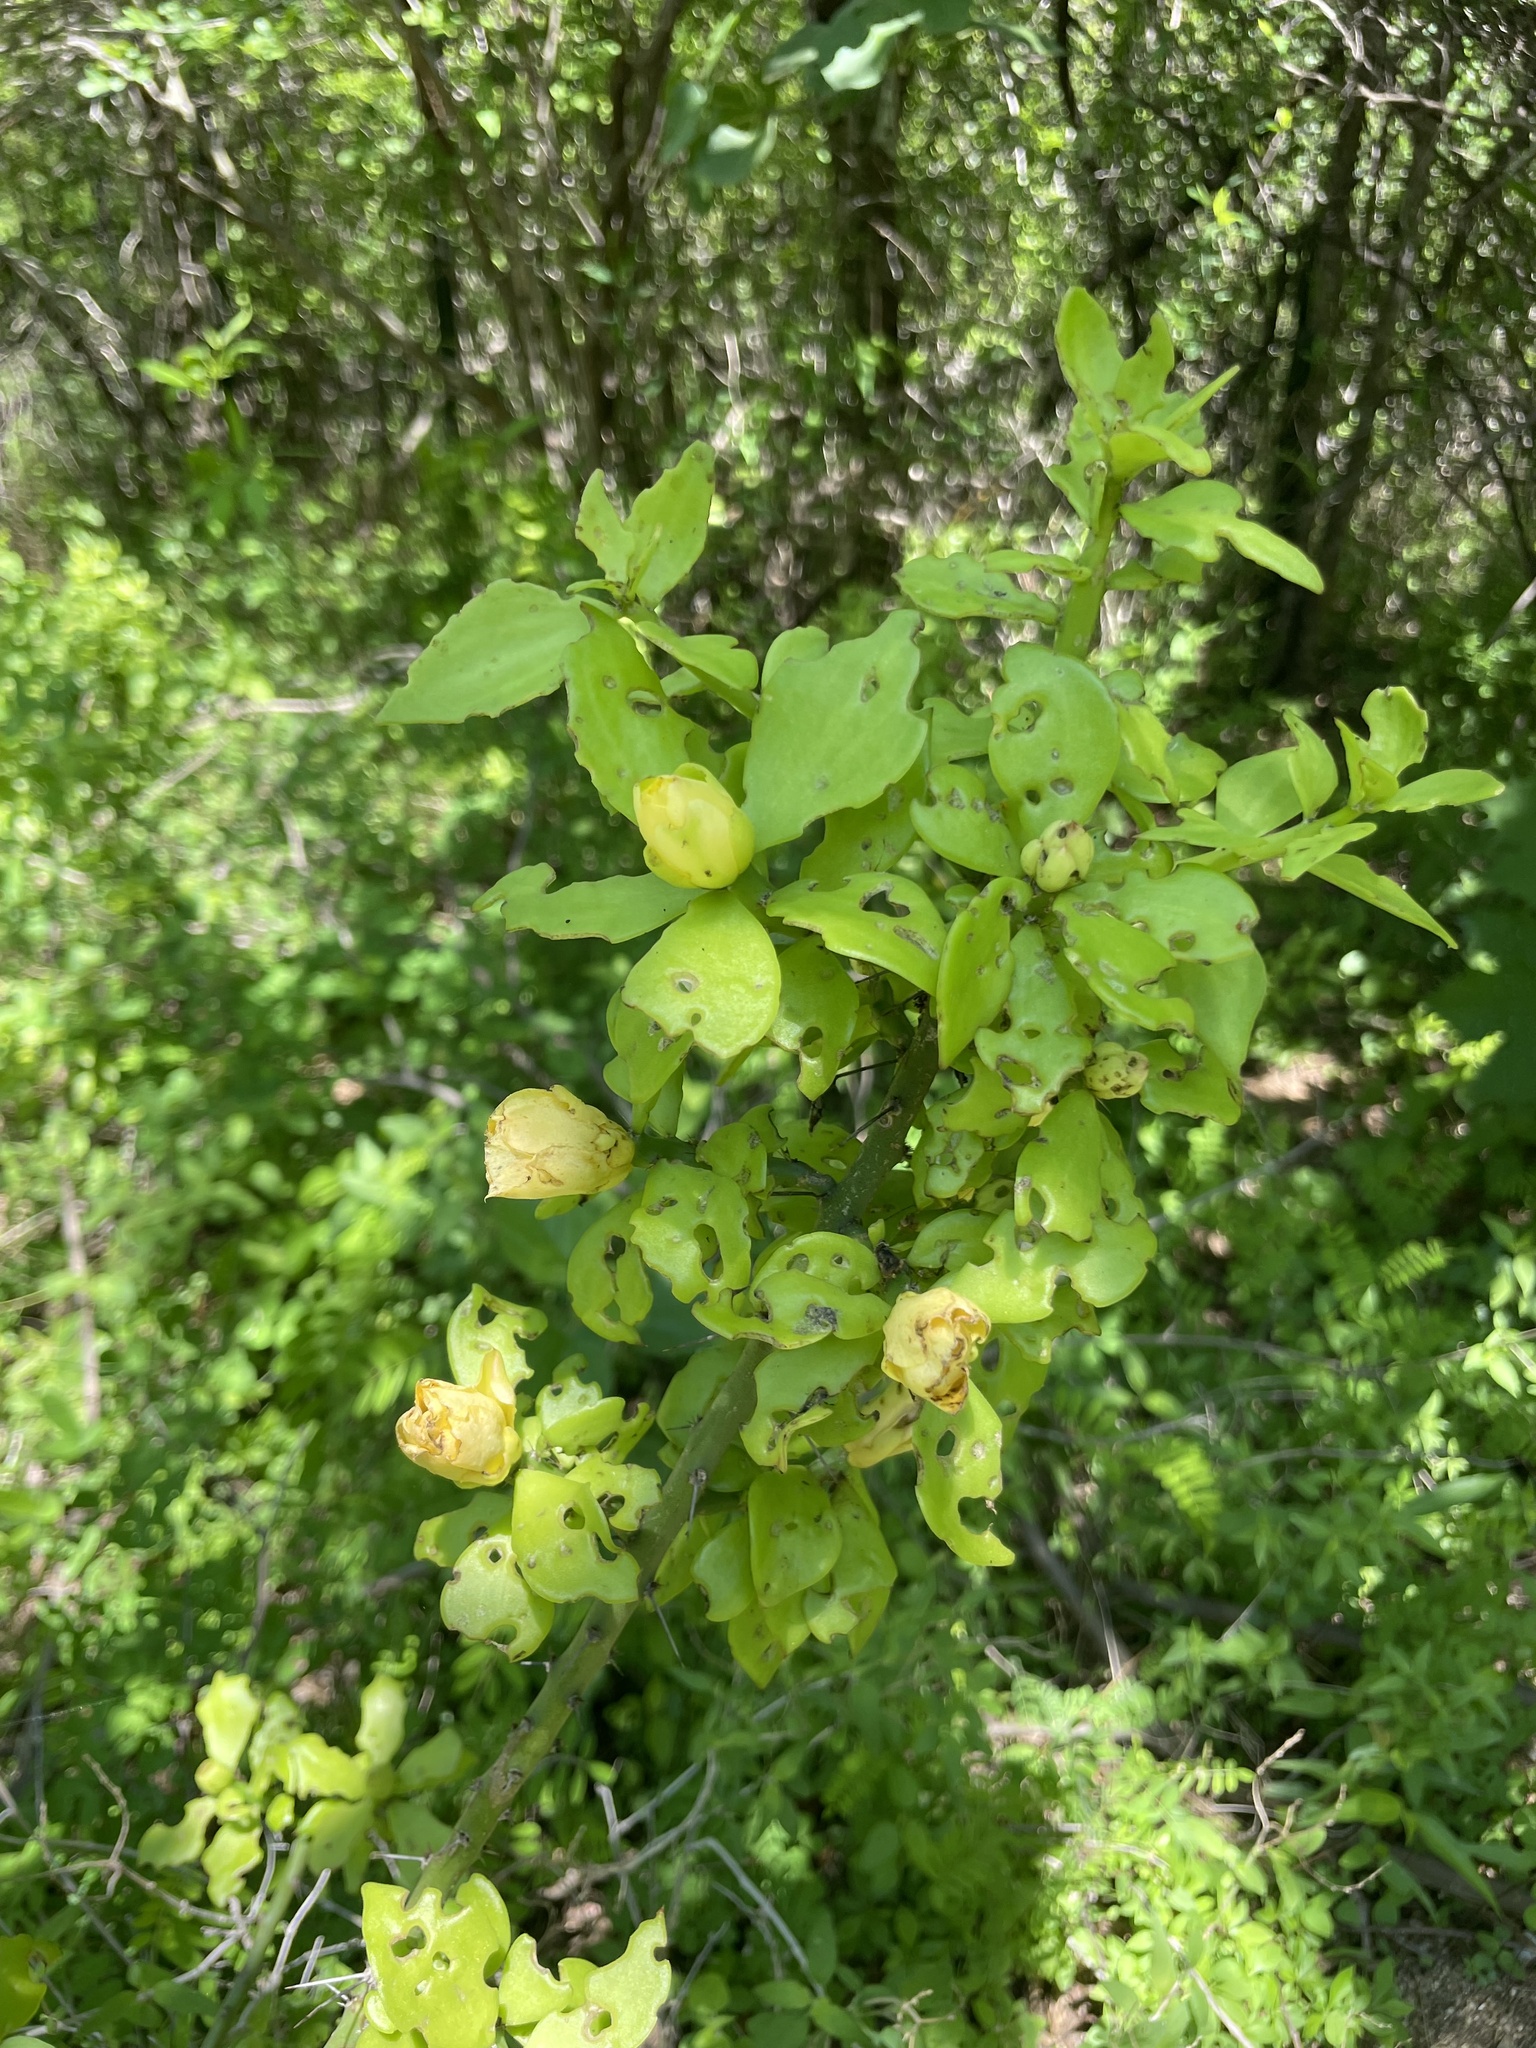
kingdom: Plantae
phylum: Tracheophyta
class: Magnoliopsida
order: Caryophyllales
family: Cactaceae
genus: Pereskiopsis
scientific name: Pereskiopsis porteri
